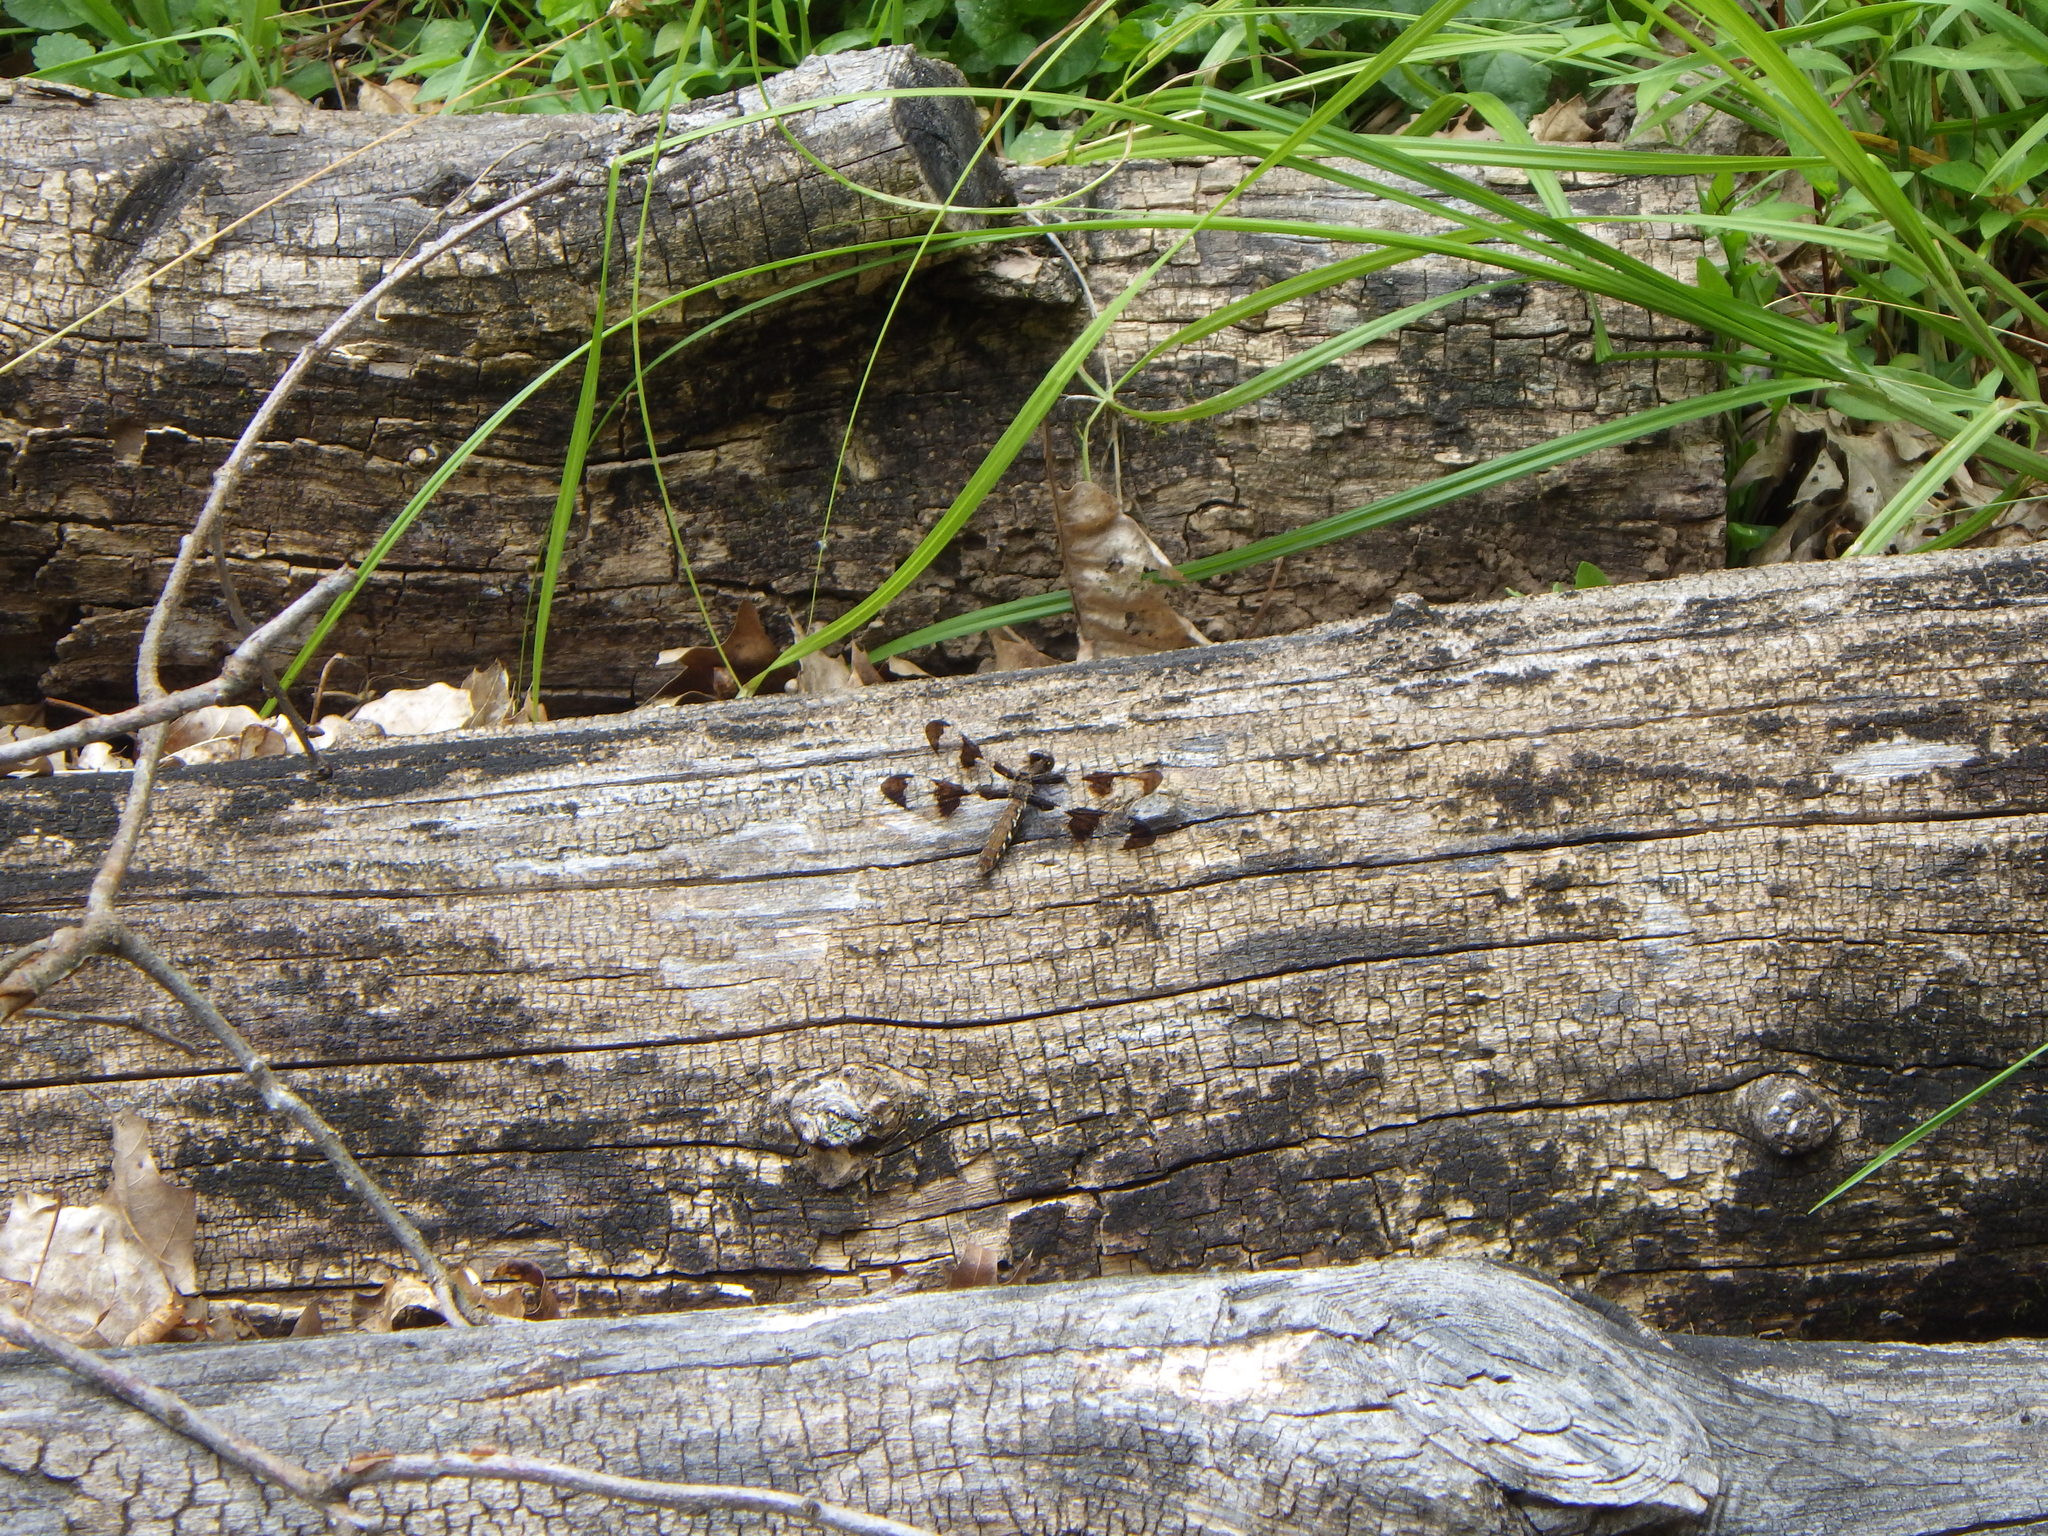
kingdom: Animalia
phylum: Arthropoda
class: Insecta
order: Odonata
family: Libellulidae
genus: Plathemis
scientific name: Plathemis lydia
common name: Common whitetail
